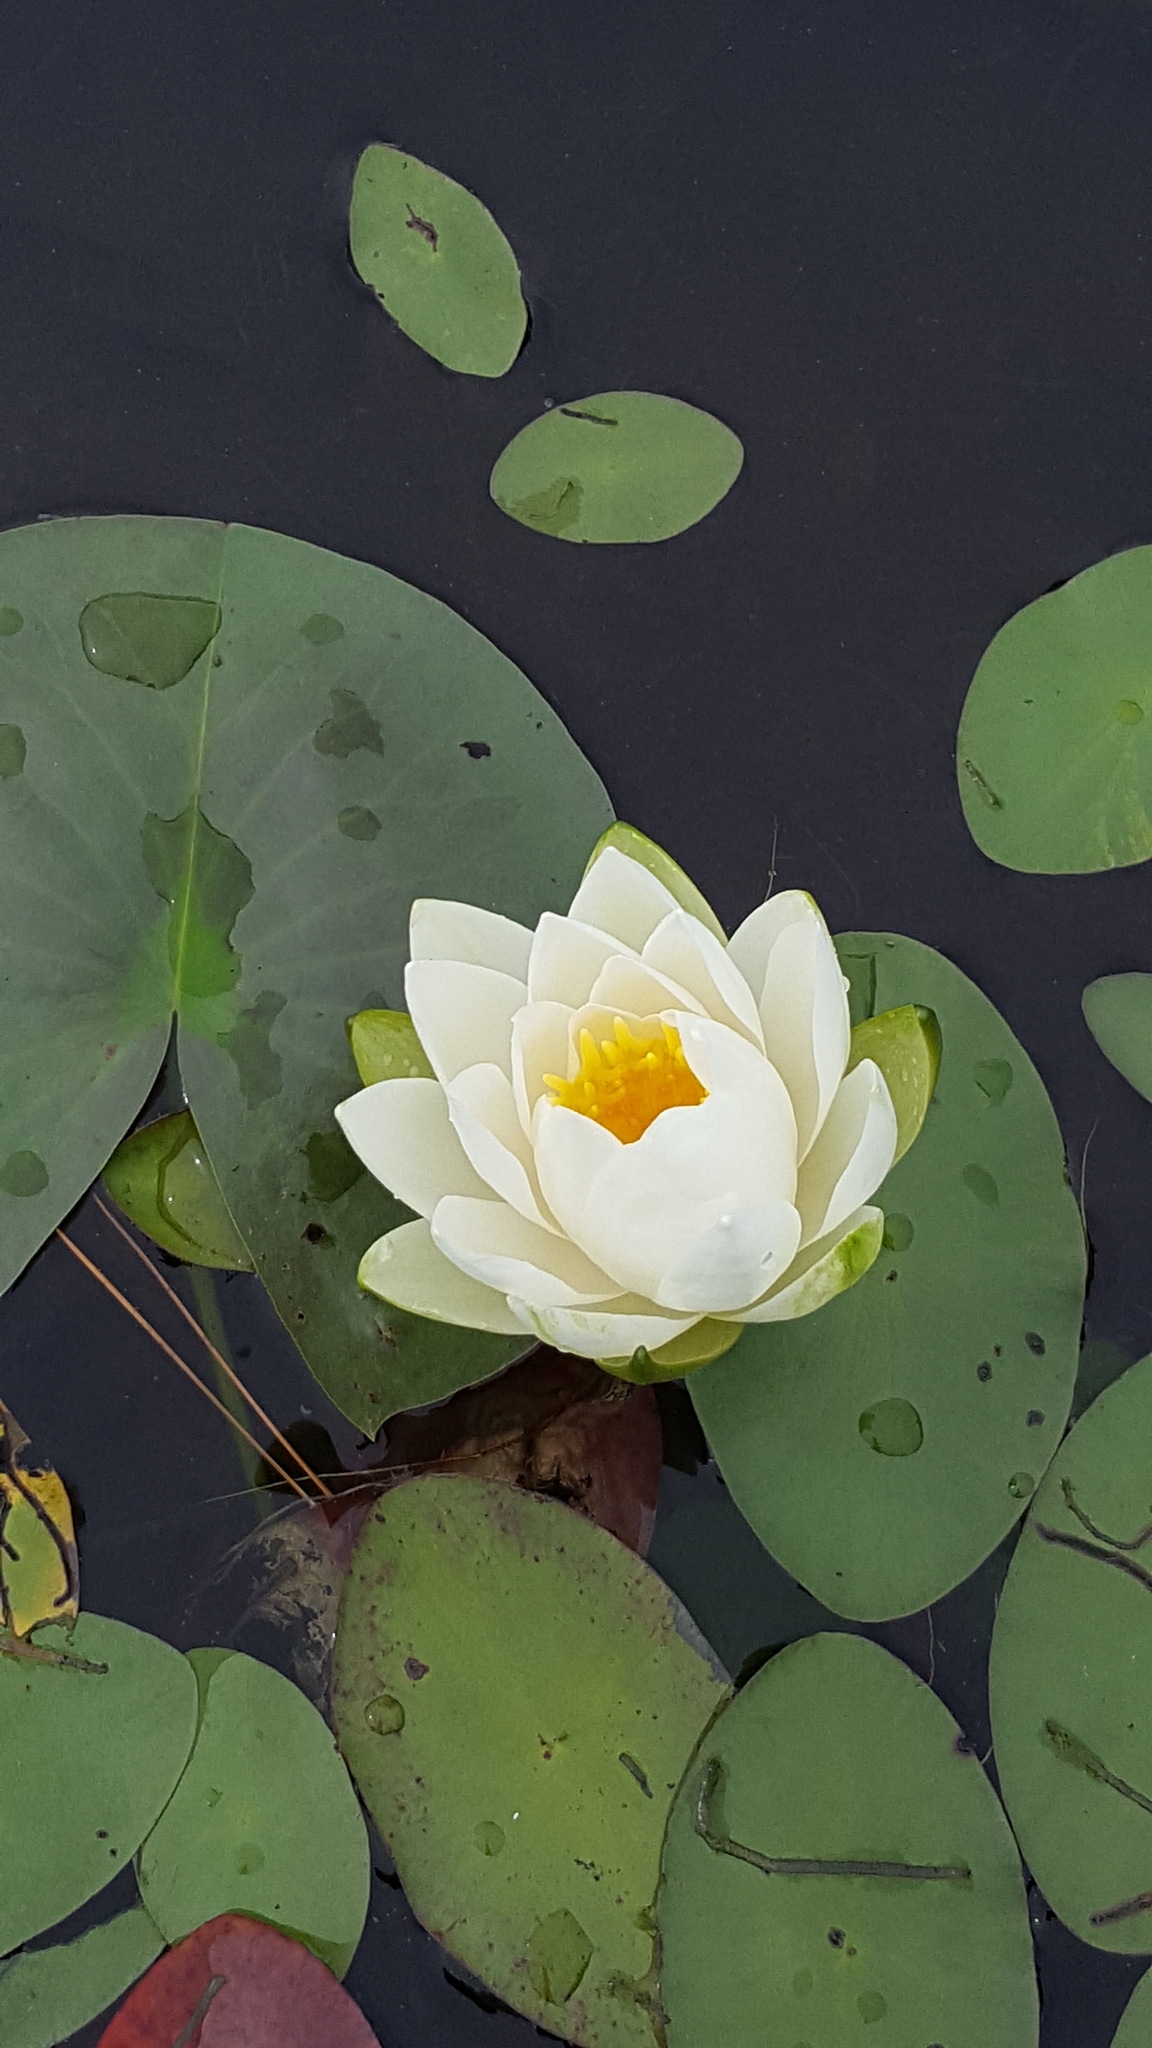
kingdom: Plantae
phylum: Tracheophyta
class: Magnoliopsida
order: Nymphaeales
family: Nymphaeaceae
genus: Nymphaea
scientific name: Nymphaea odorata
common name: Fragrant water-lily
